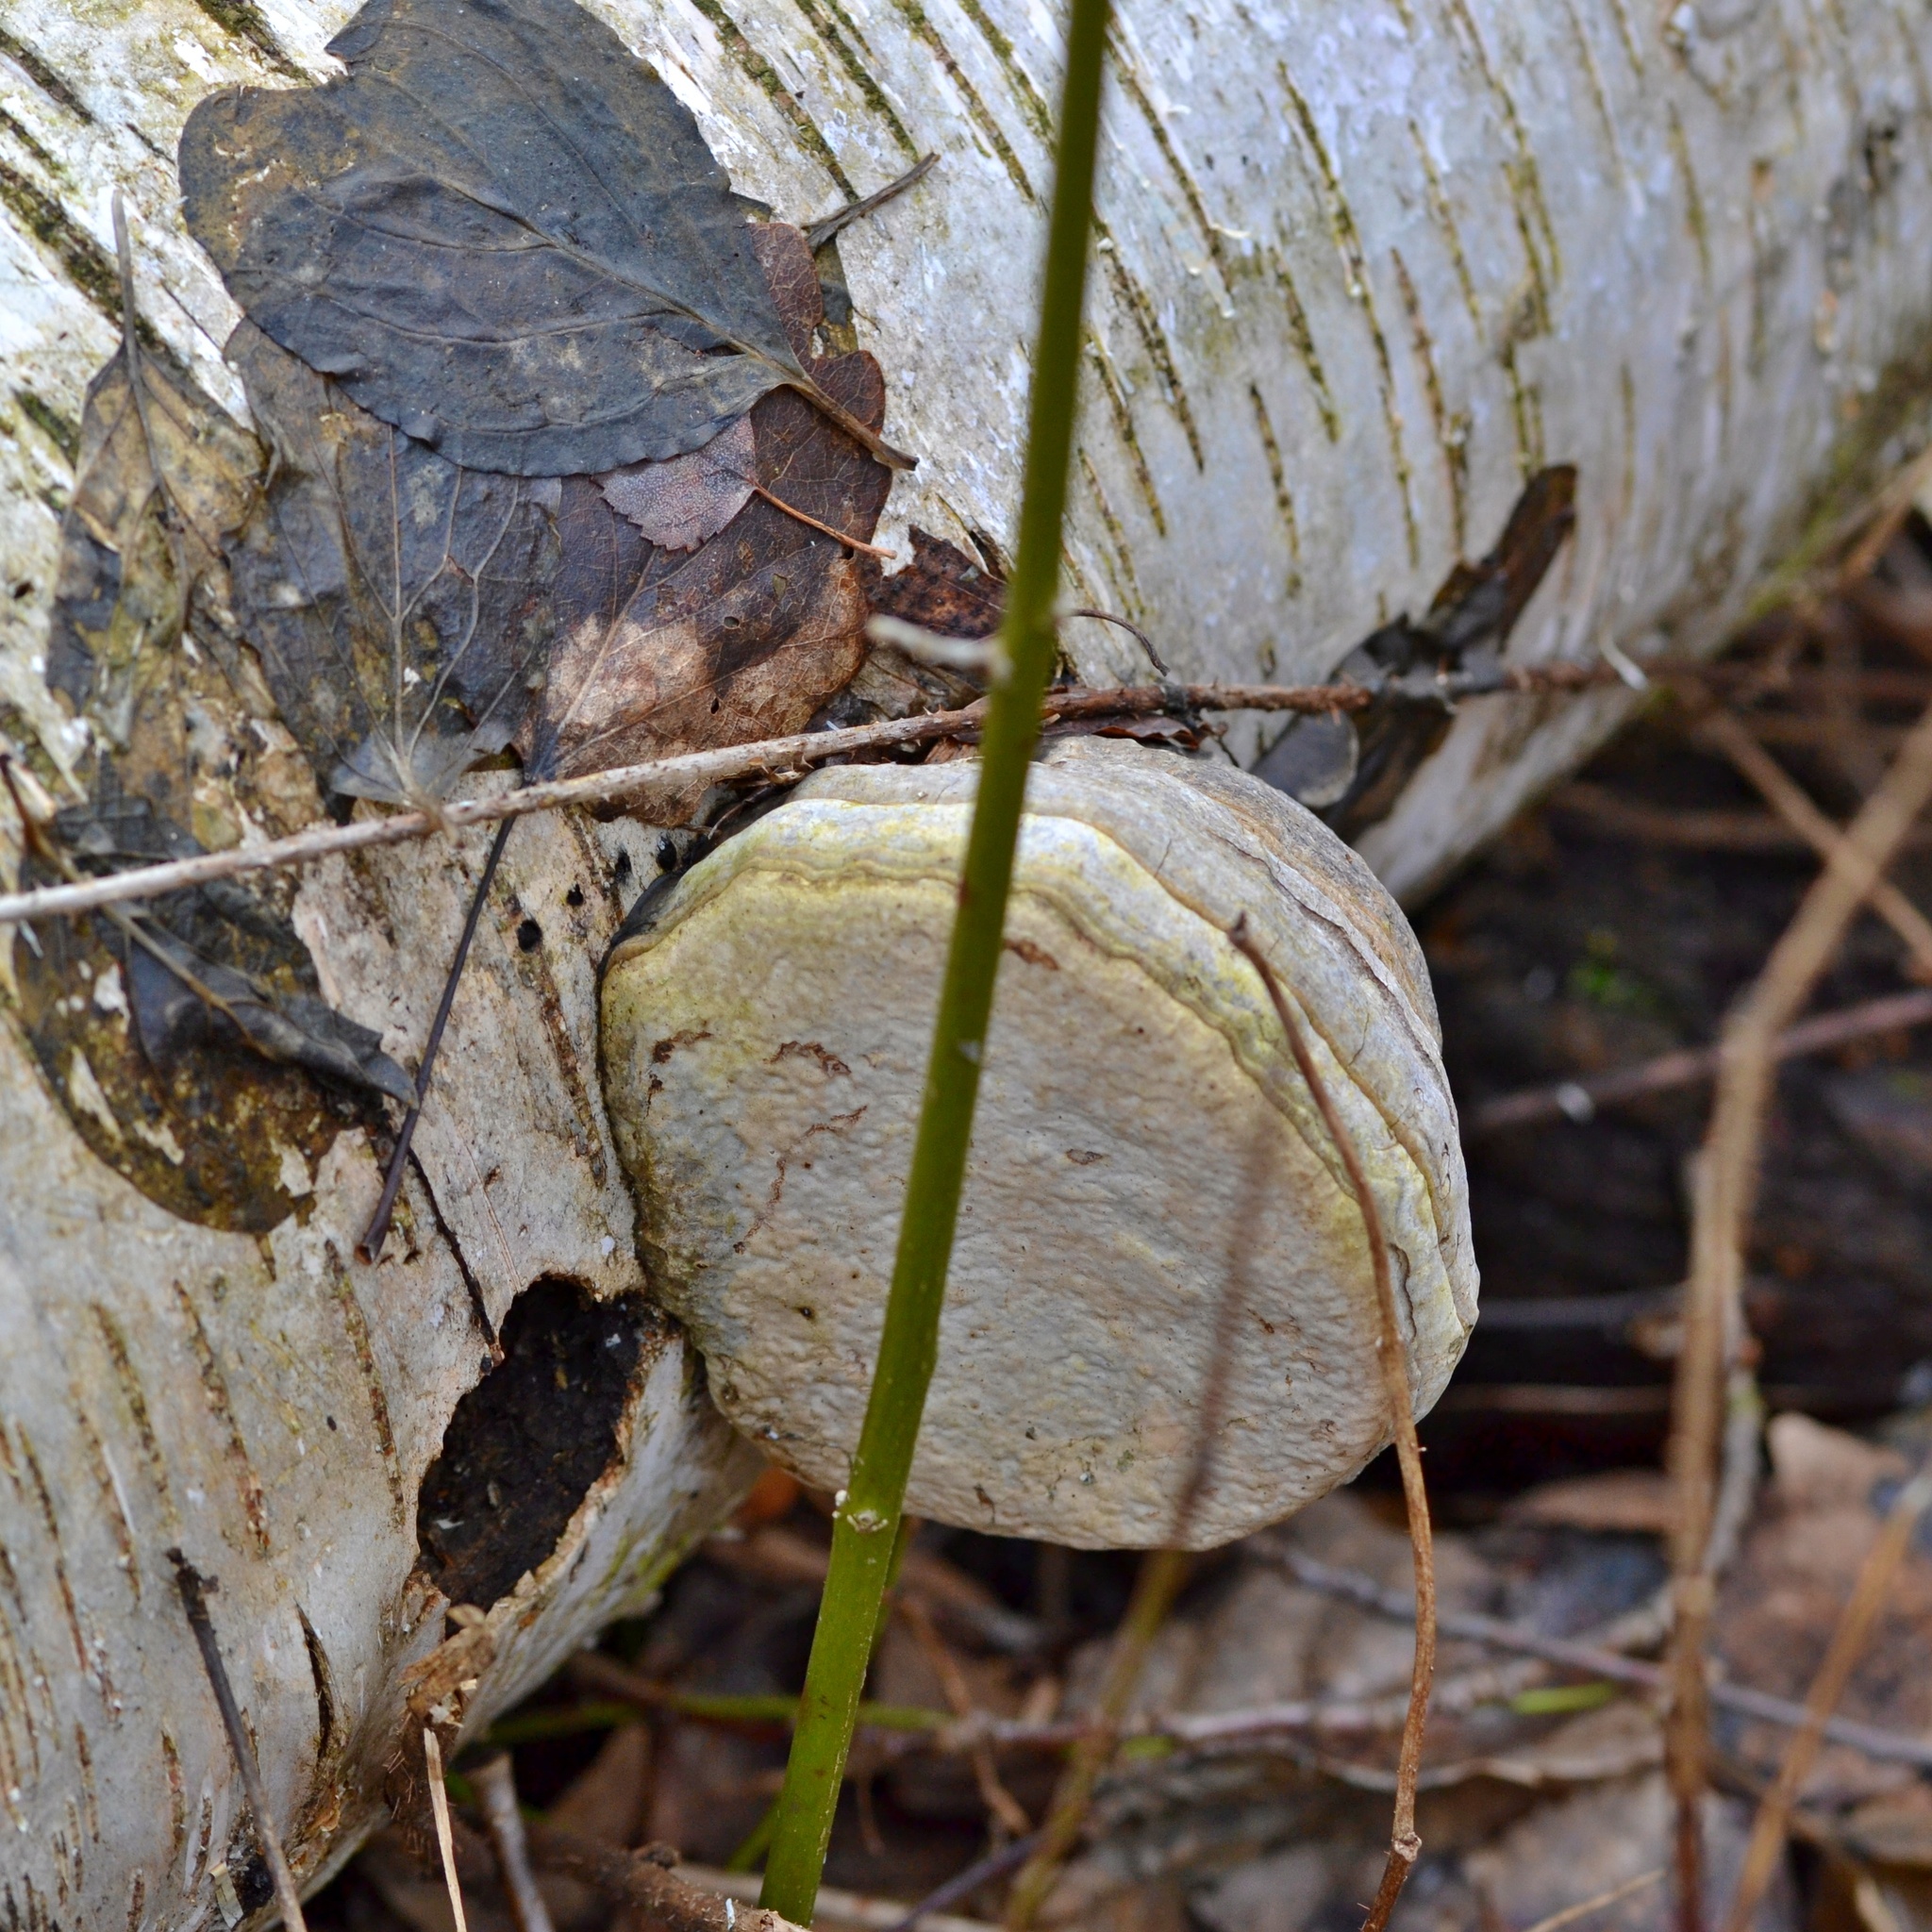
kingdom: Fungi
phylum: Basidiomycota
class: Agaricomycetes
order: Polyporales
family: Polyporaceae
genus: Fomes
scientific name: Fomes fomentarius
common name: Hoof fungus
